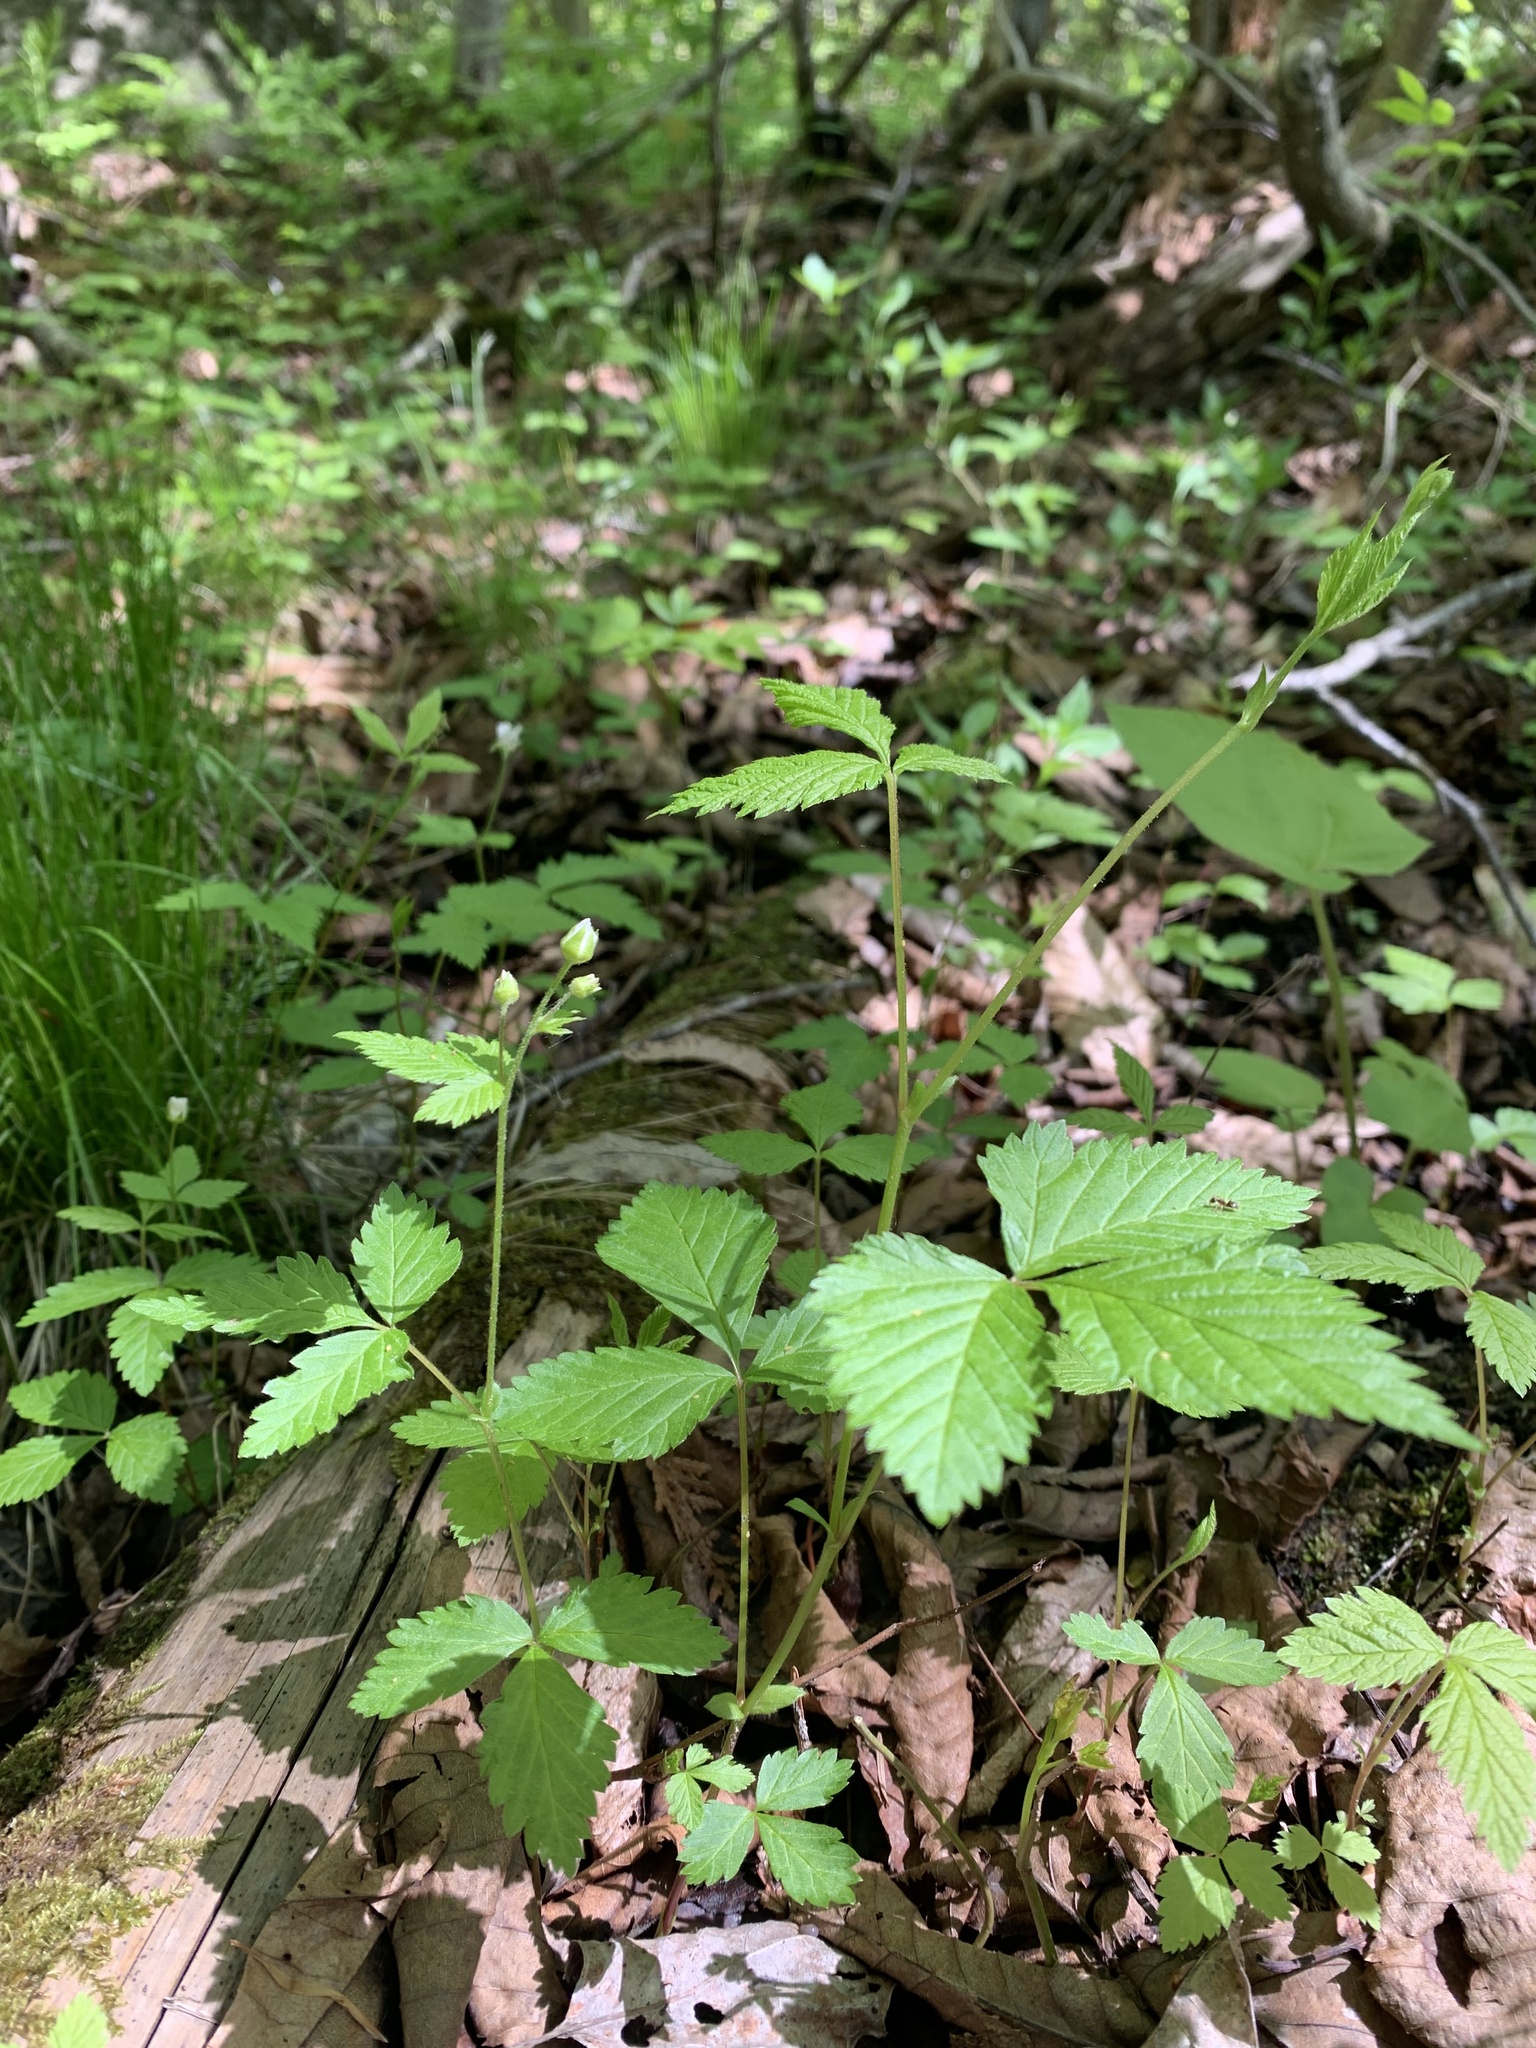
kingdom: Plantae
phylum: Tracheophyta
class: Magnoliopsida
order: Rosales
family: Rosaceae
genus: Rubus
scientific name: Rubus pubescens
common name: Dwarf raspberry
